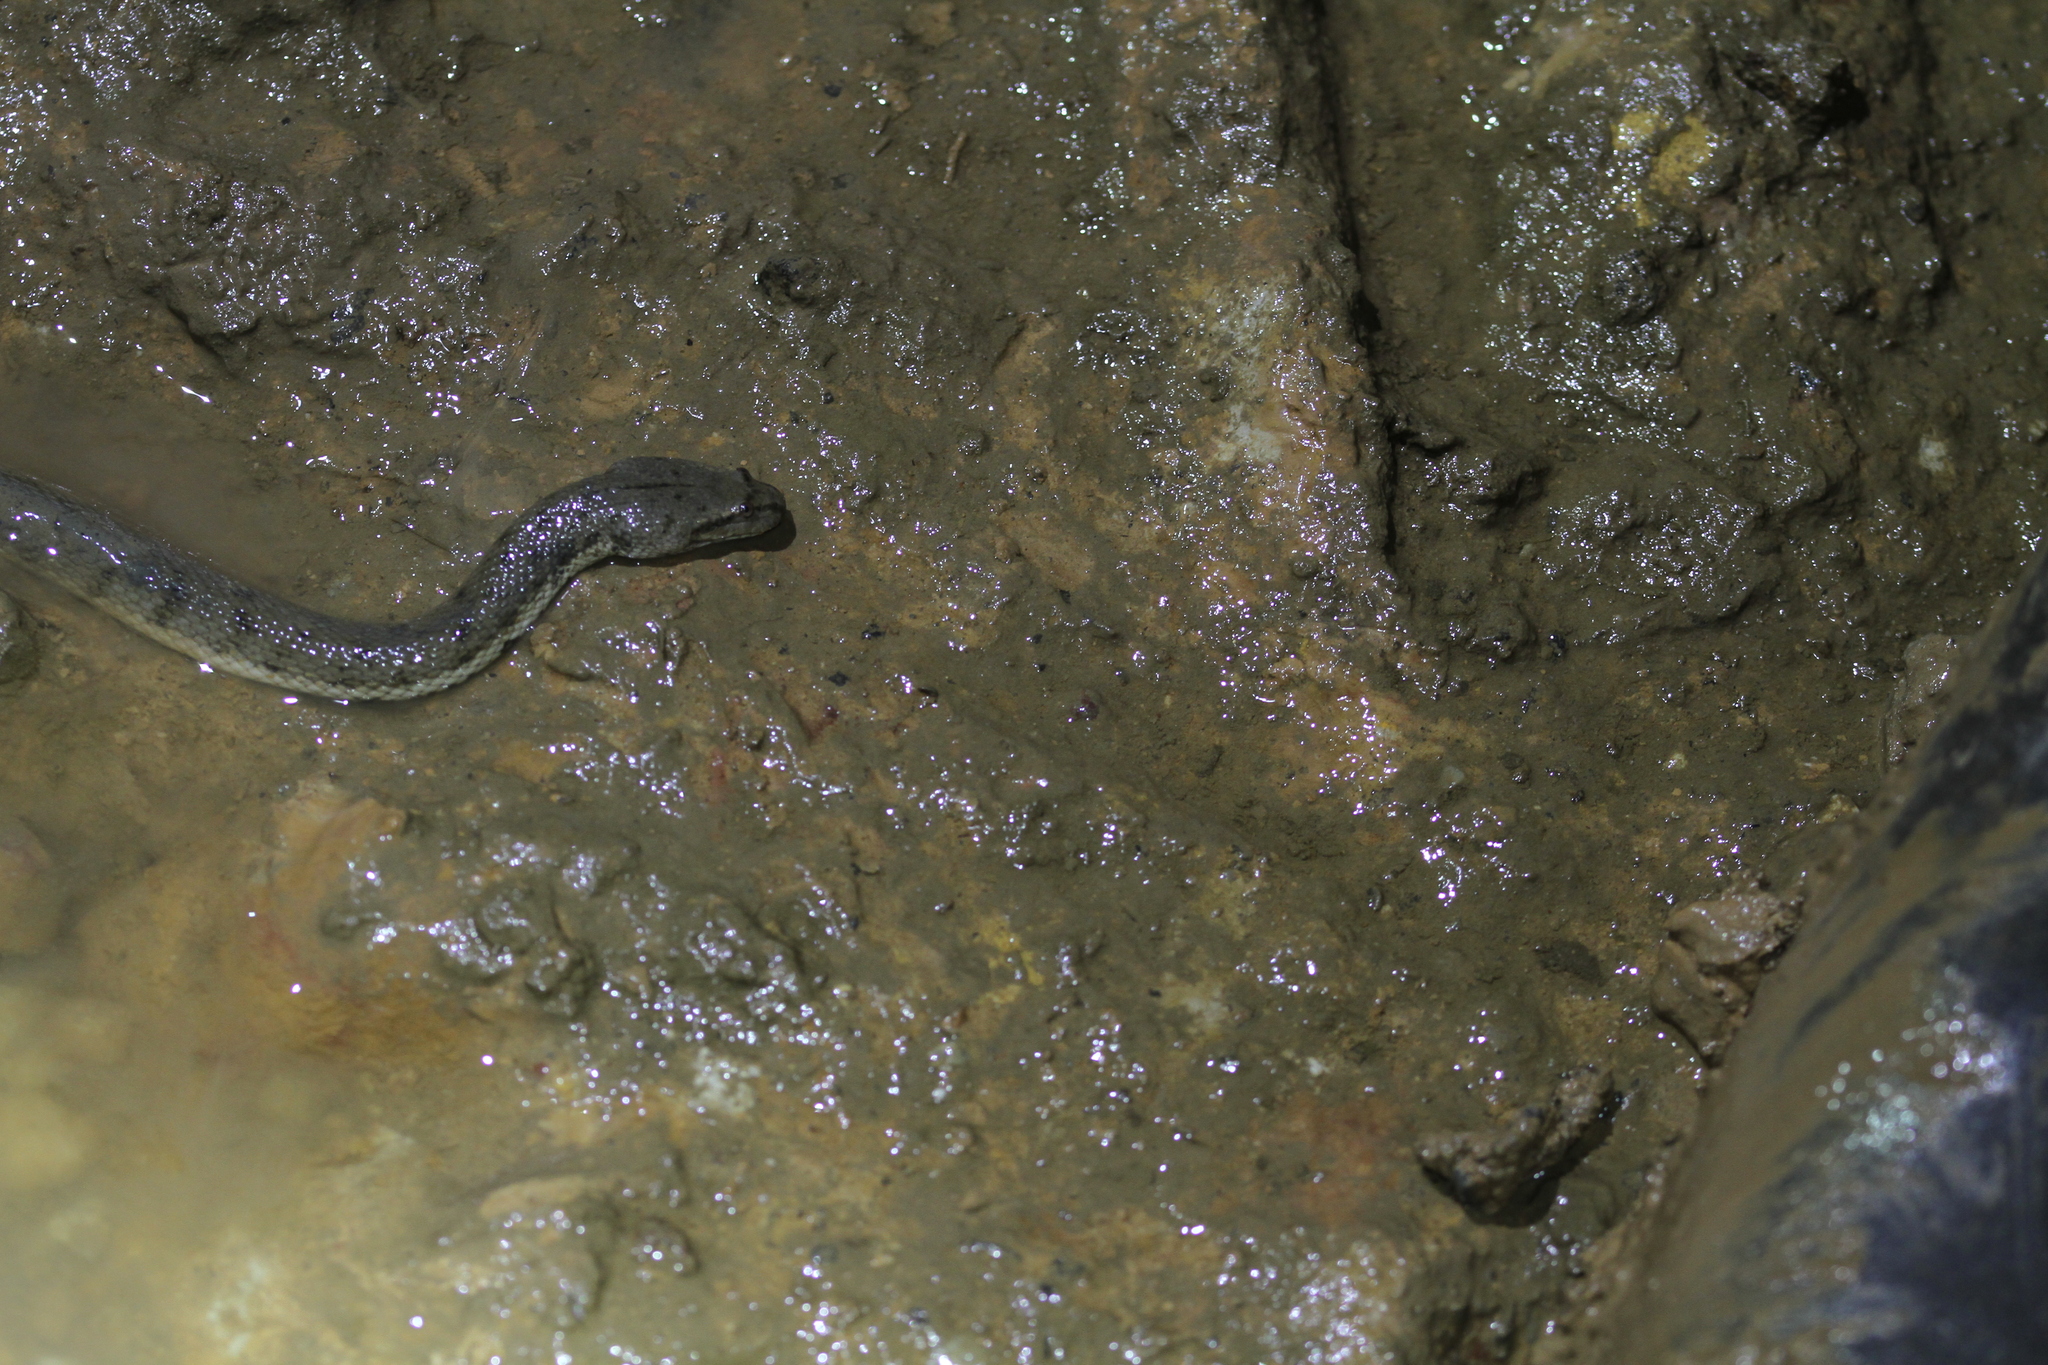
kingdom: Animalia
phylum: Chordata
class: Squamata
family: Homalopsidae
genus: Cerberus
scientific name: Cerberus schneiderii
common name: Southeast asian bockadam
